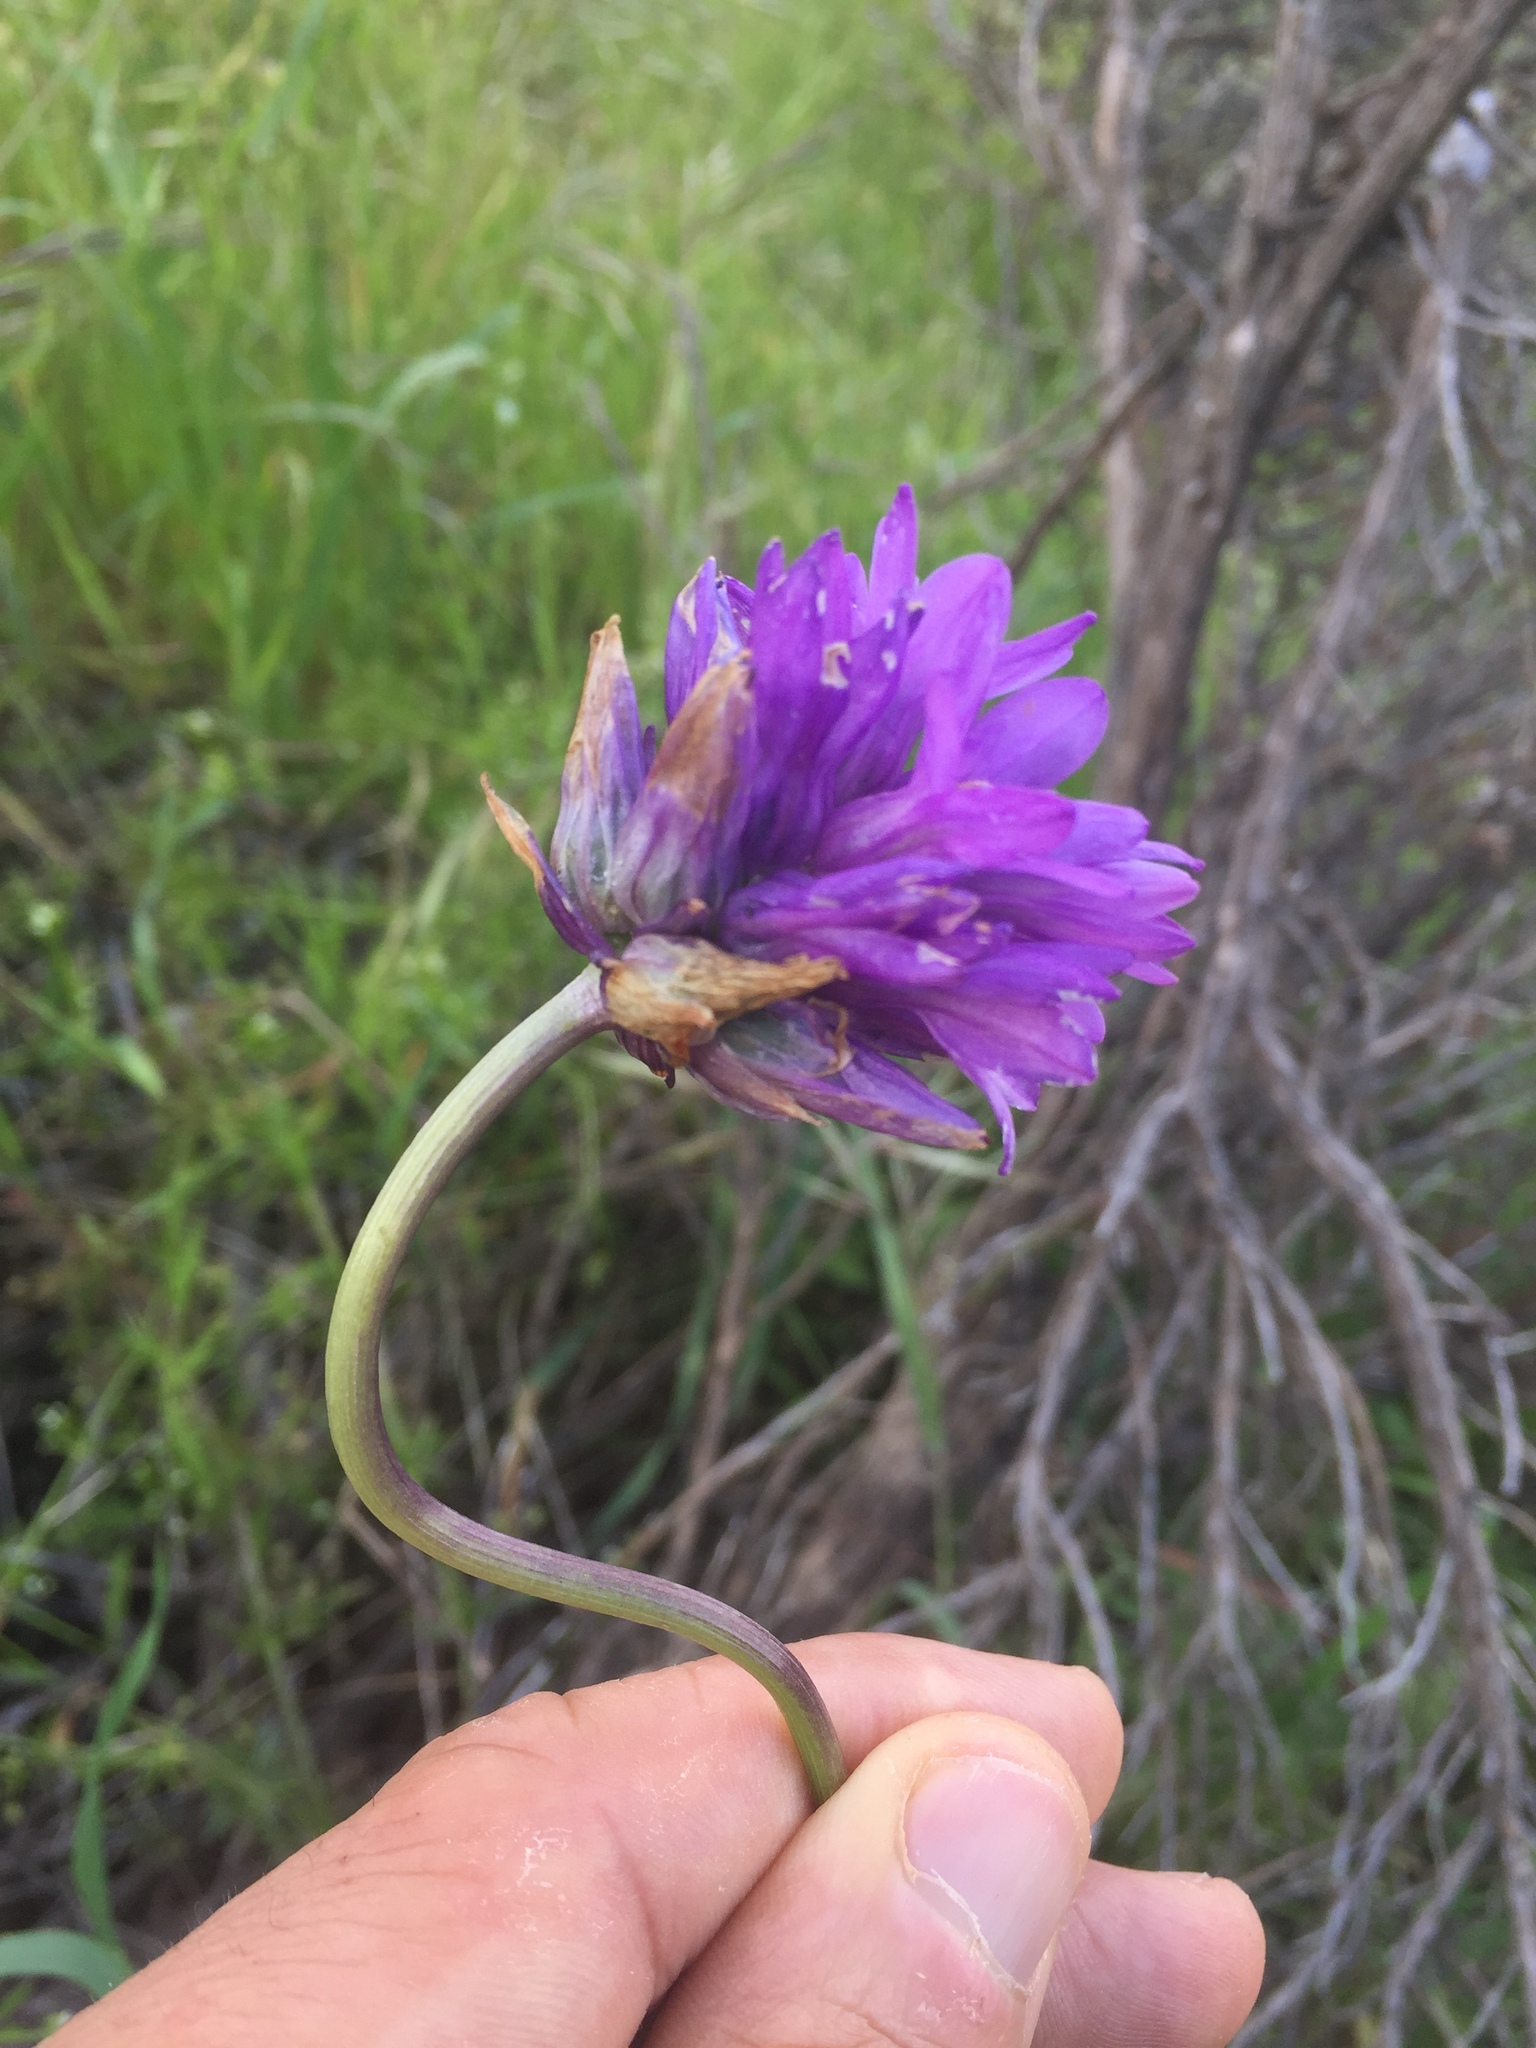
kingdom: Plantae
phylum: Tracheophyta
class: Liliopsida
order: Asparagales
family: Asparagaceae
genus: Dichelostemma
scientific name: Dichelostemma congestum
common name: Fork-tooth ookow
